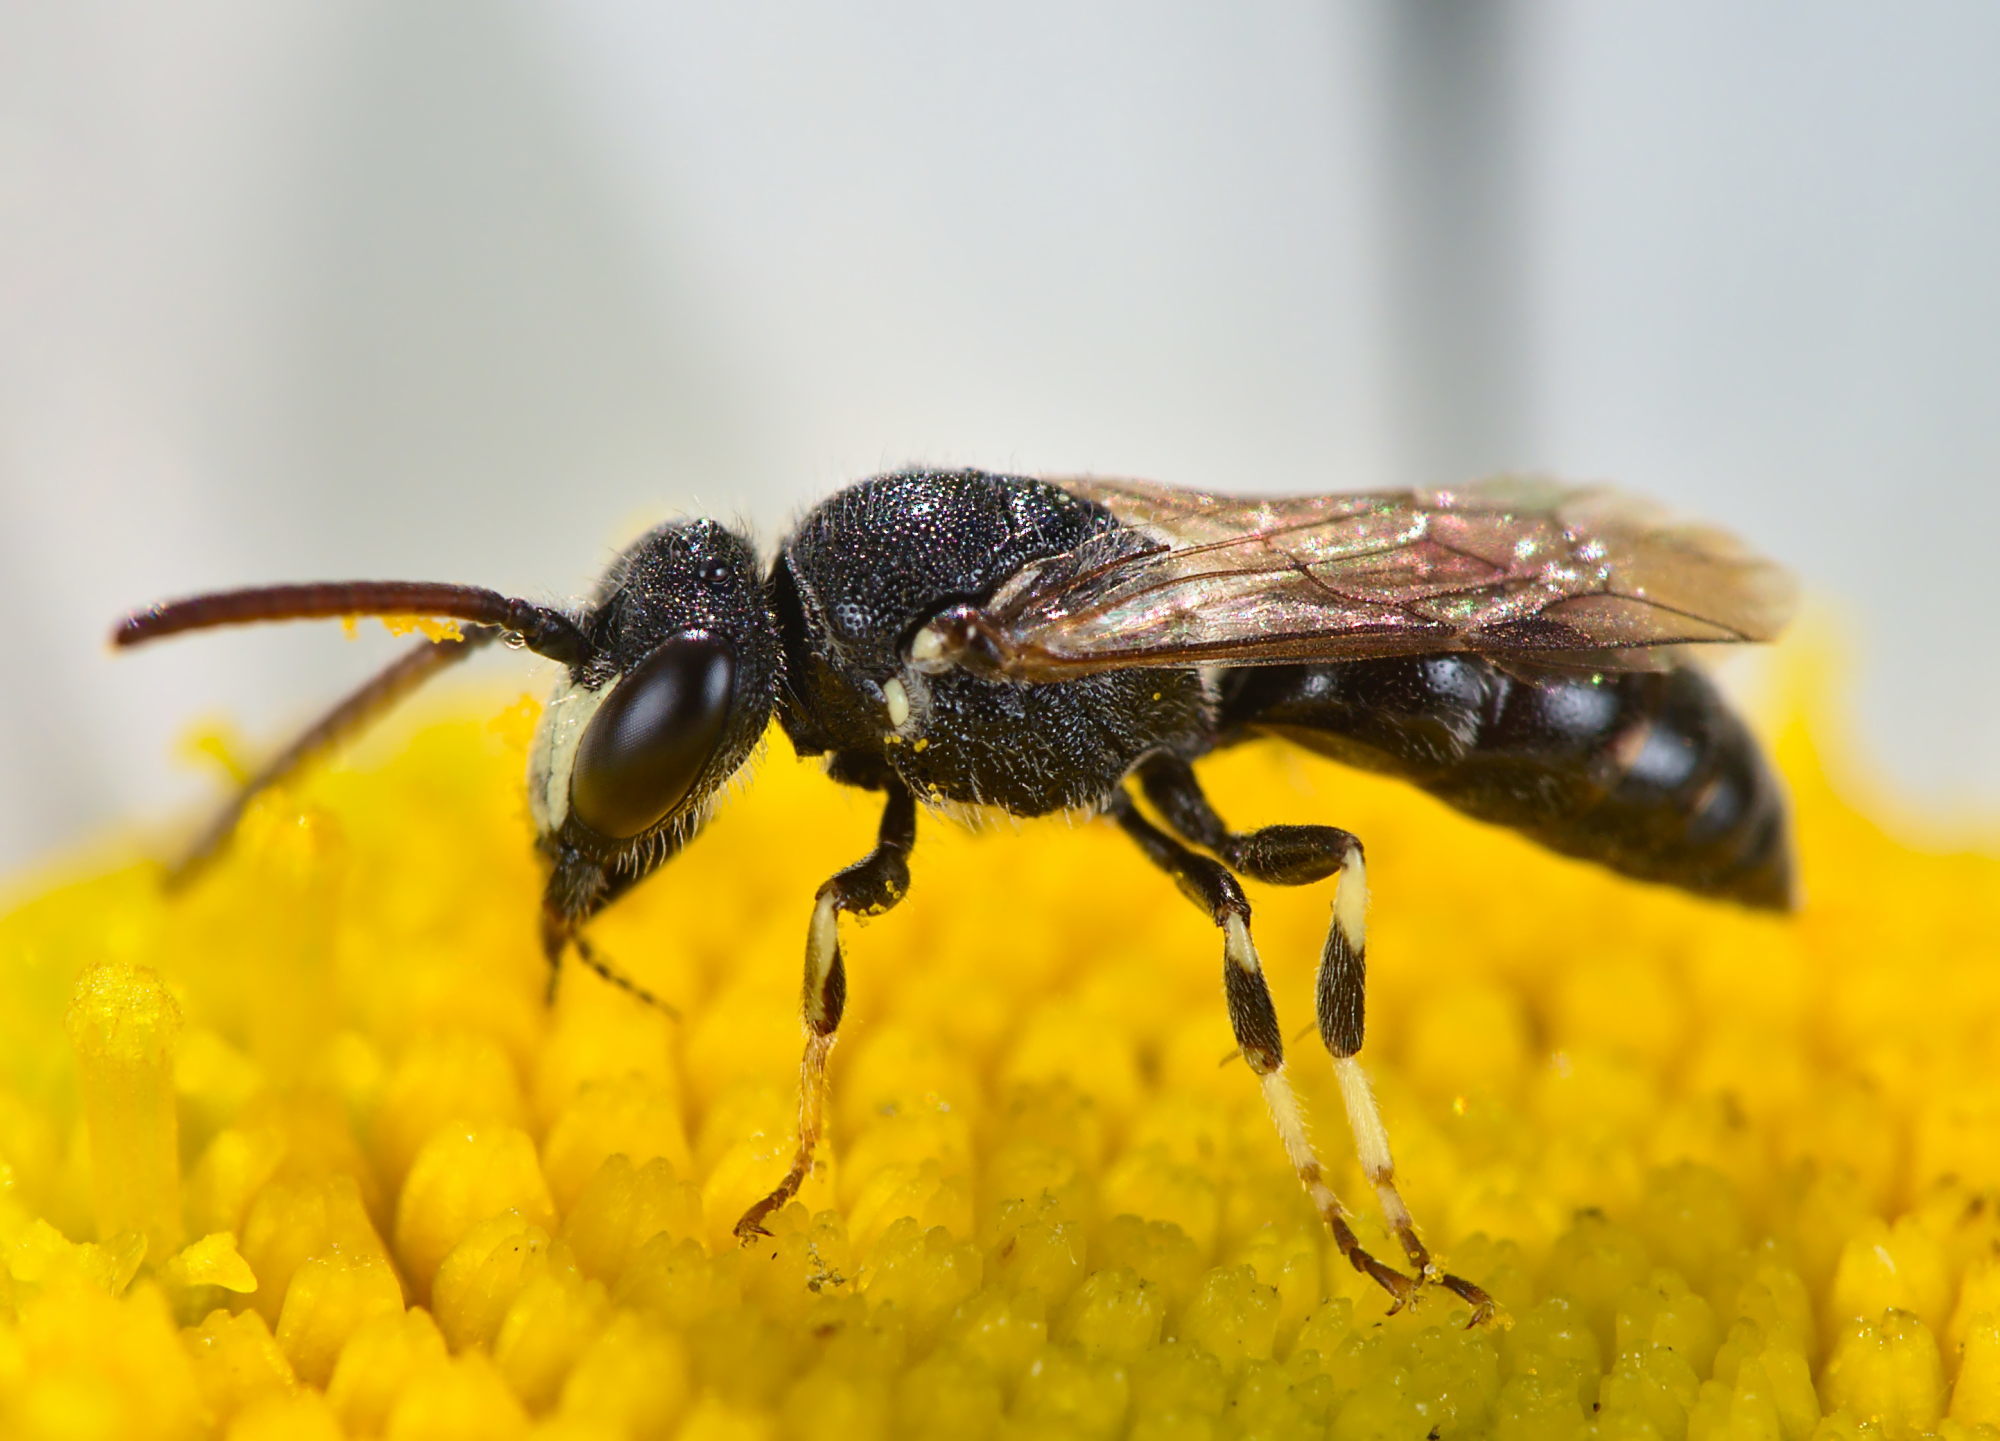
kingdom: Animalia
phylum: Arthropoda
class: Insecta
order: Hymenoptera
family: Colletidae
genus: Hylaeus
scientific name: Hylaeus hyalinatus
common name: Hyaline masked bee
